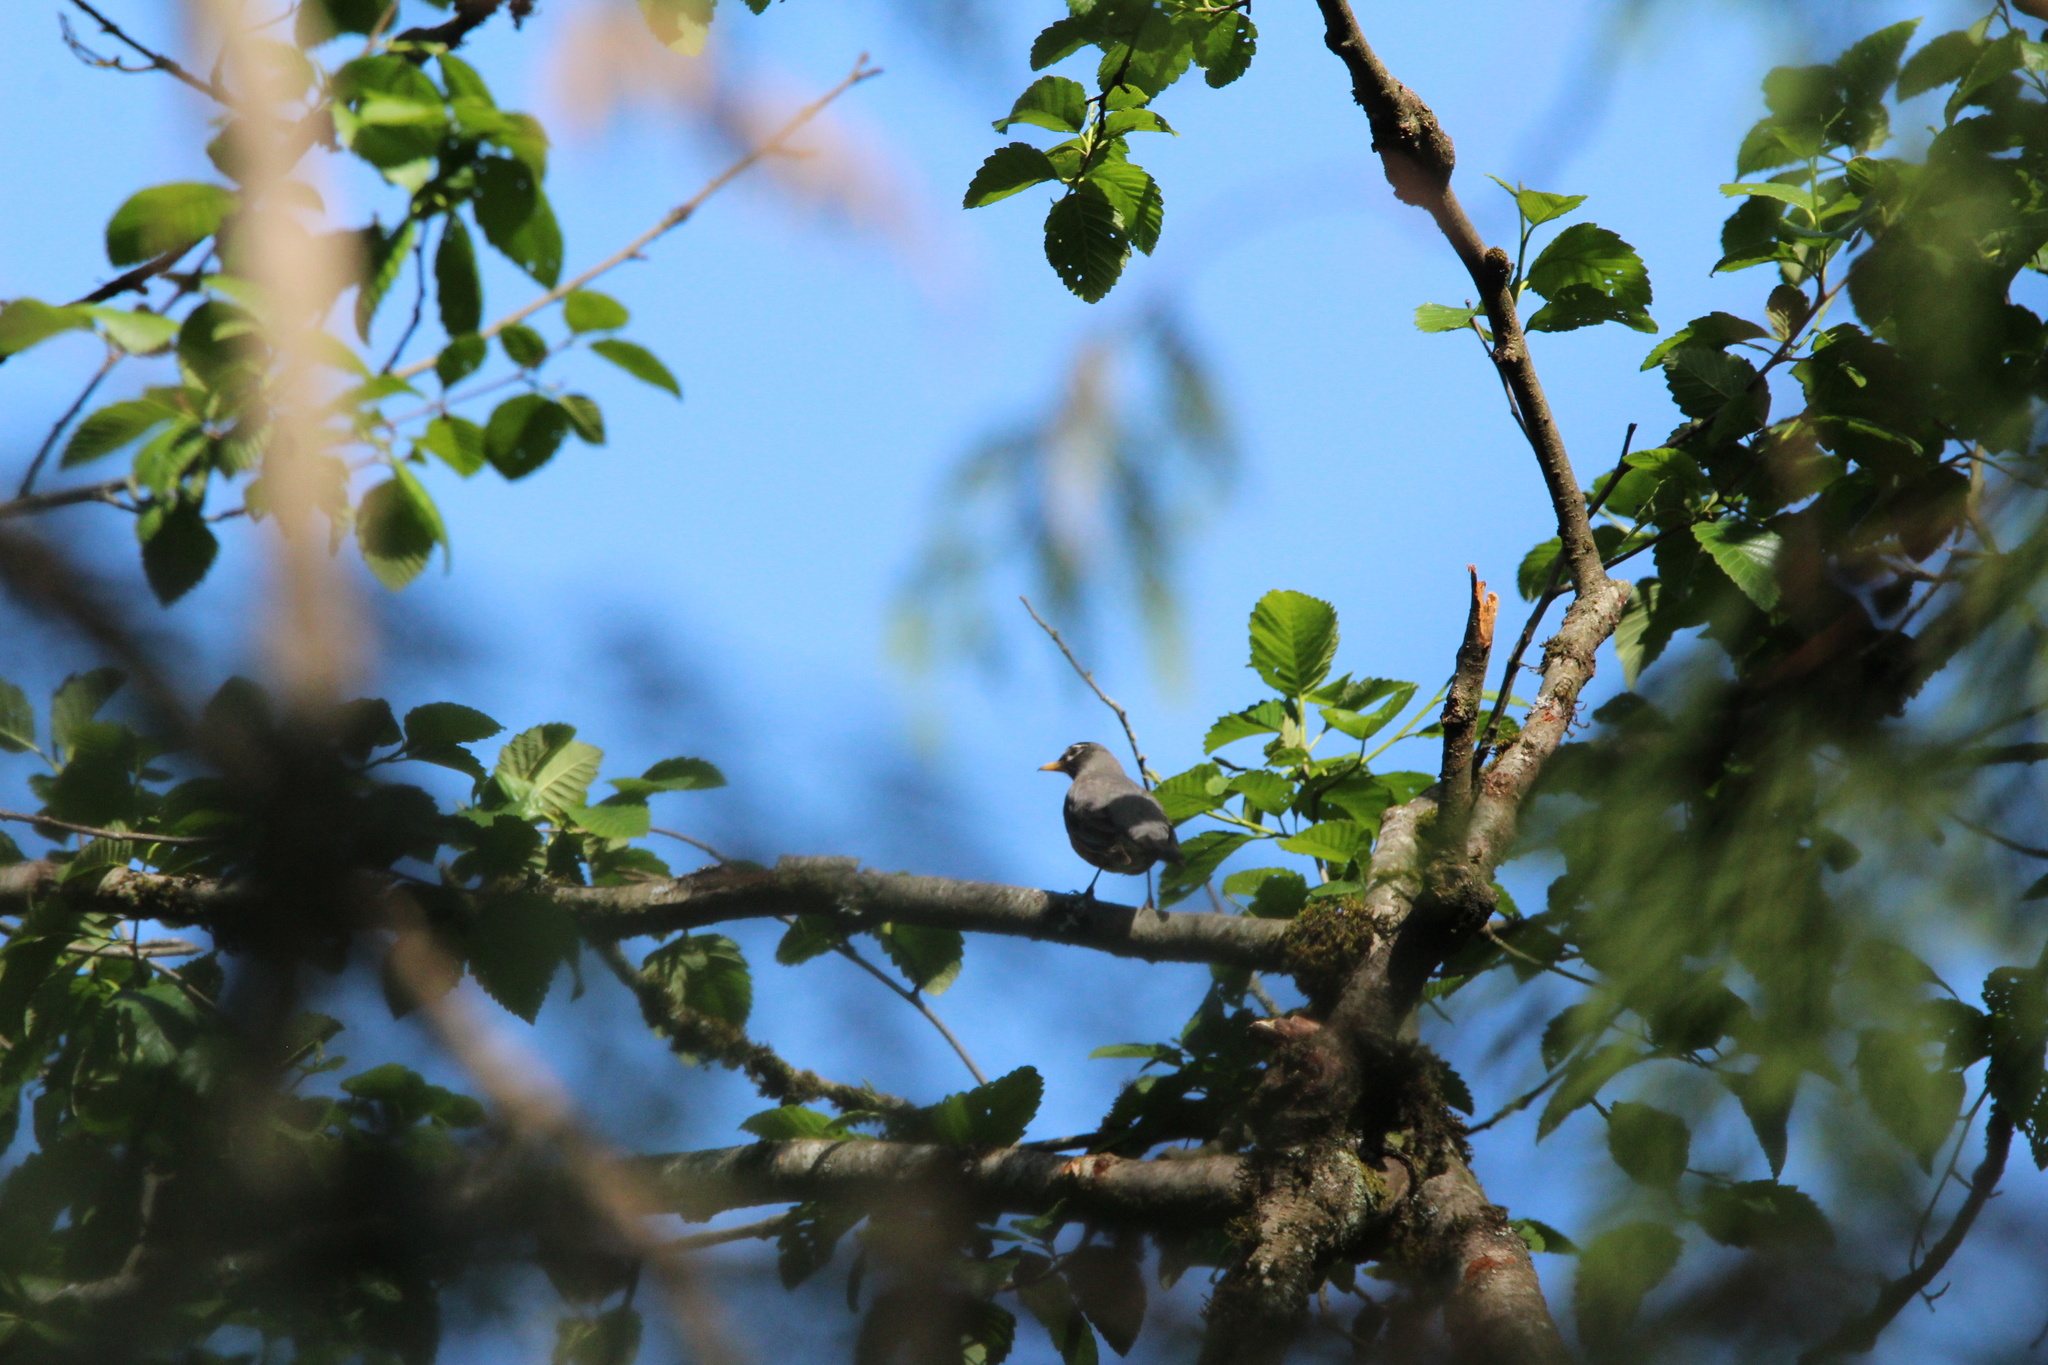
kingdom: Animalia
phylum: Chordata
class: Aves
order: Passeriformes
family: Turdidae
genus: Turdus
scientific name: Turdus migratorius
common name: American robin
